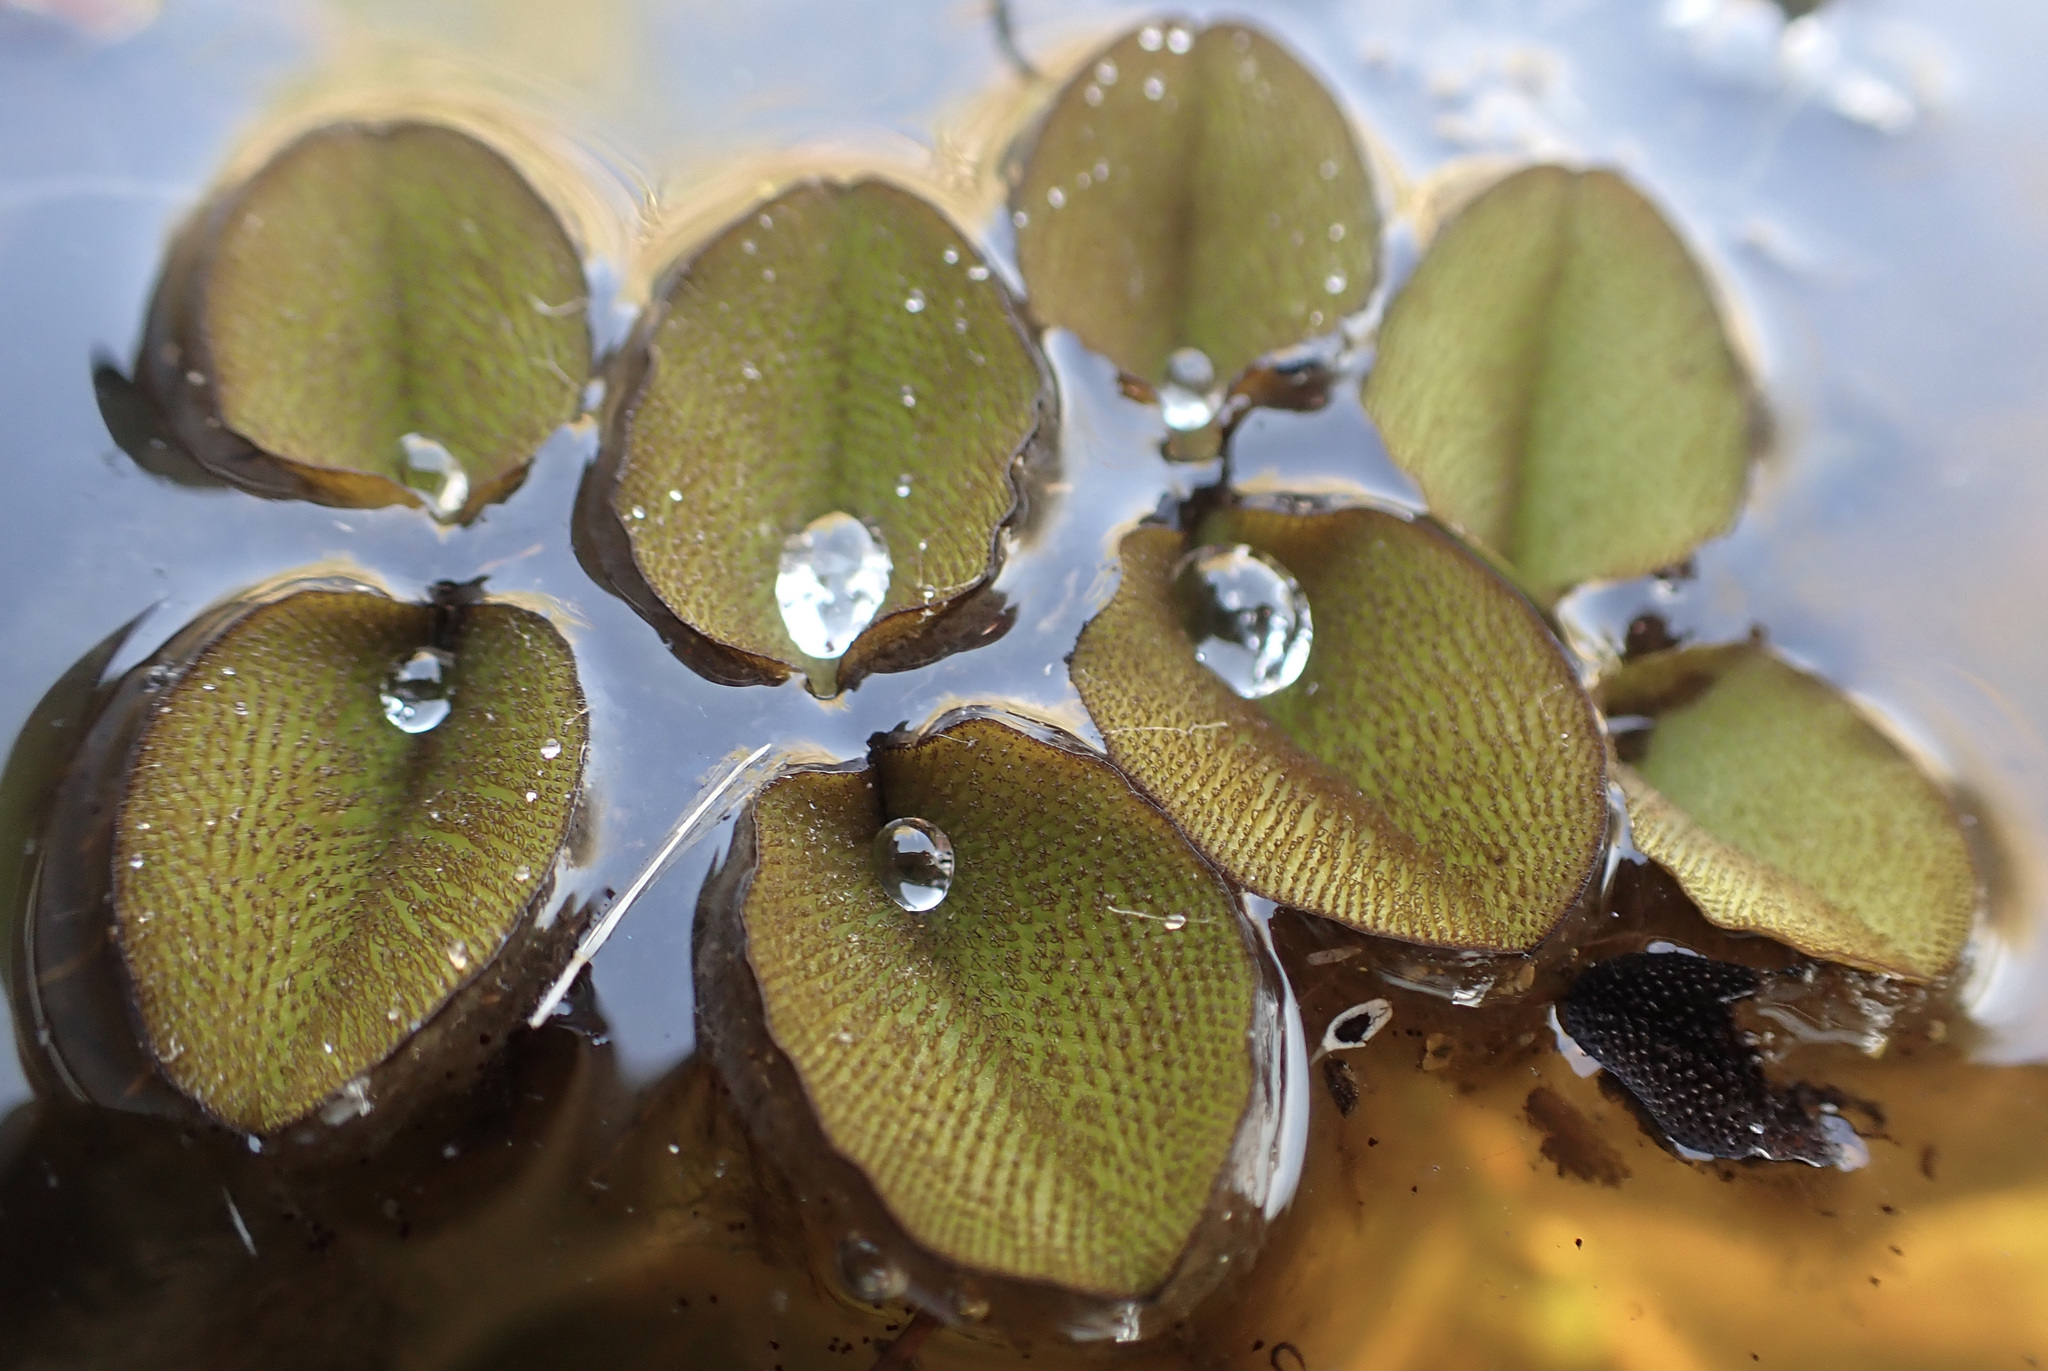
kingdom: Plantae
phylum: Tracheophyta
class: Polypodiopsida
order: Salviniales
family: Salviniaceae
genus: Salvinia
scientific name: Salvinia molesta
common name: Kariba weed
